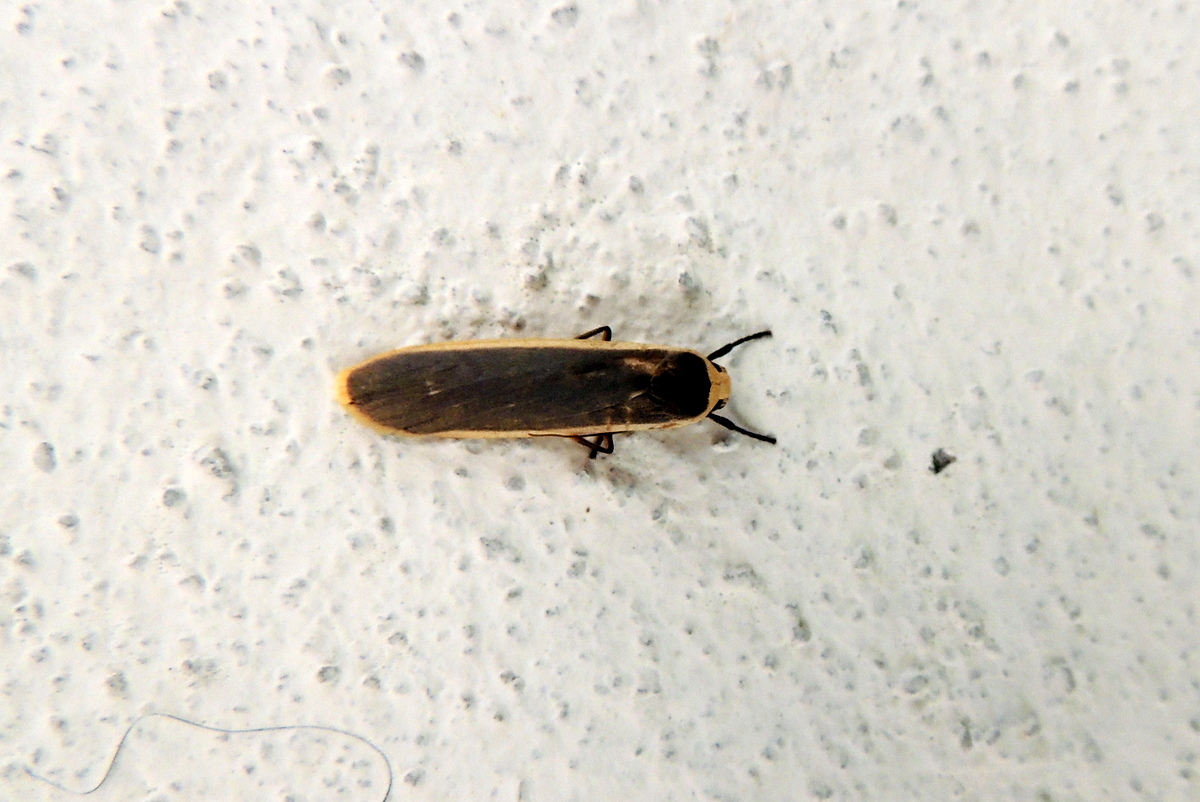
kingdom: Animalia
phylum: Arthropoda
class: Insecta
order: Lepidoptera
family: Erebidae
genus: Brunia
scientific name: Brunia antica
